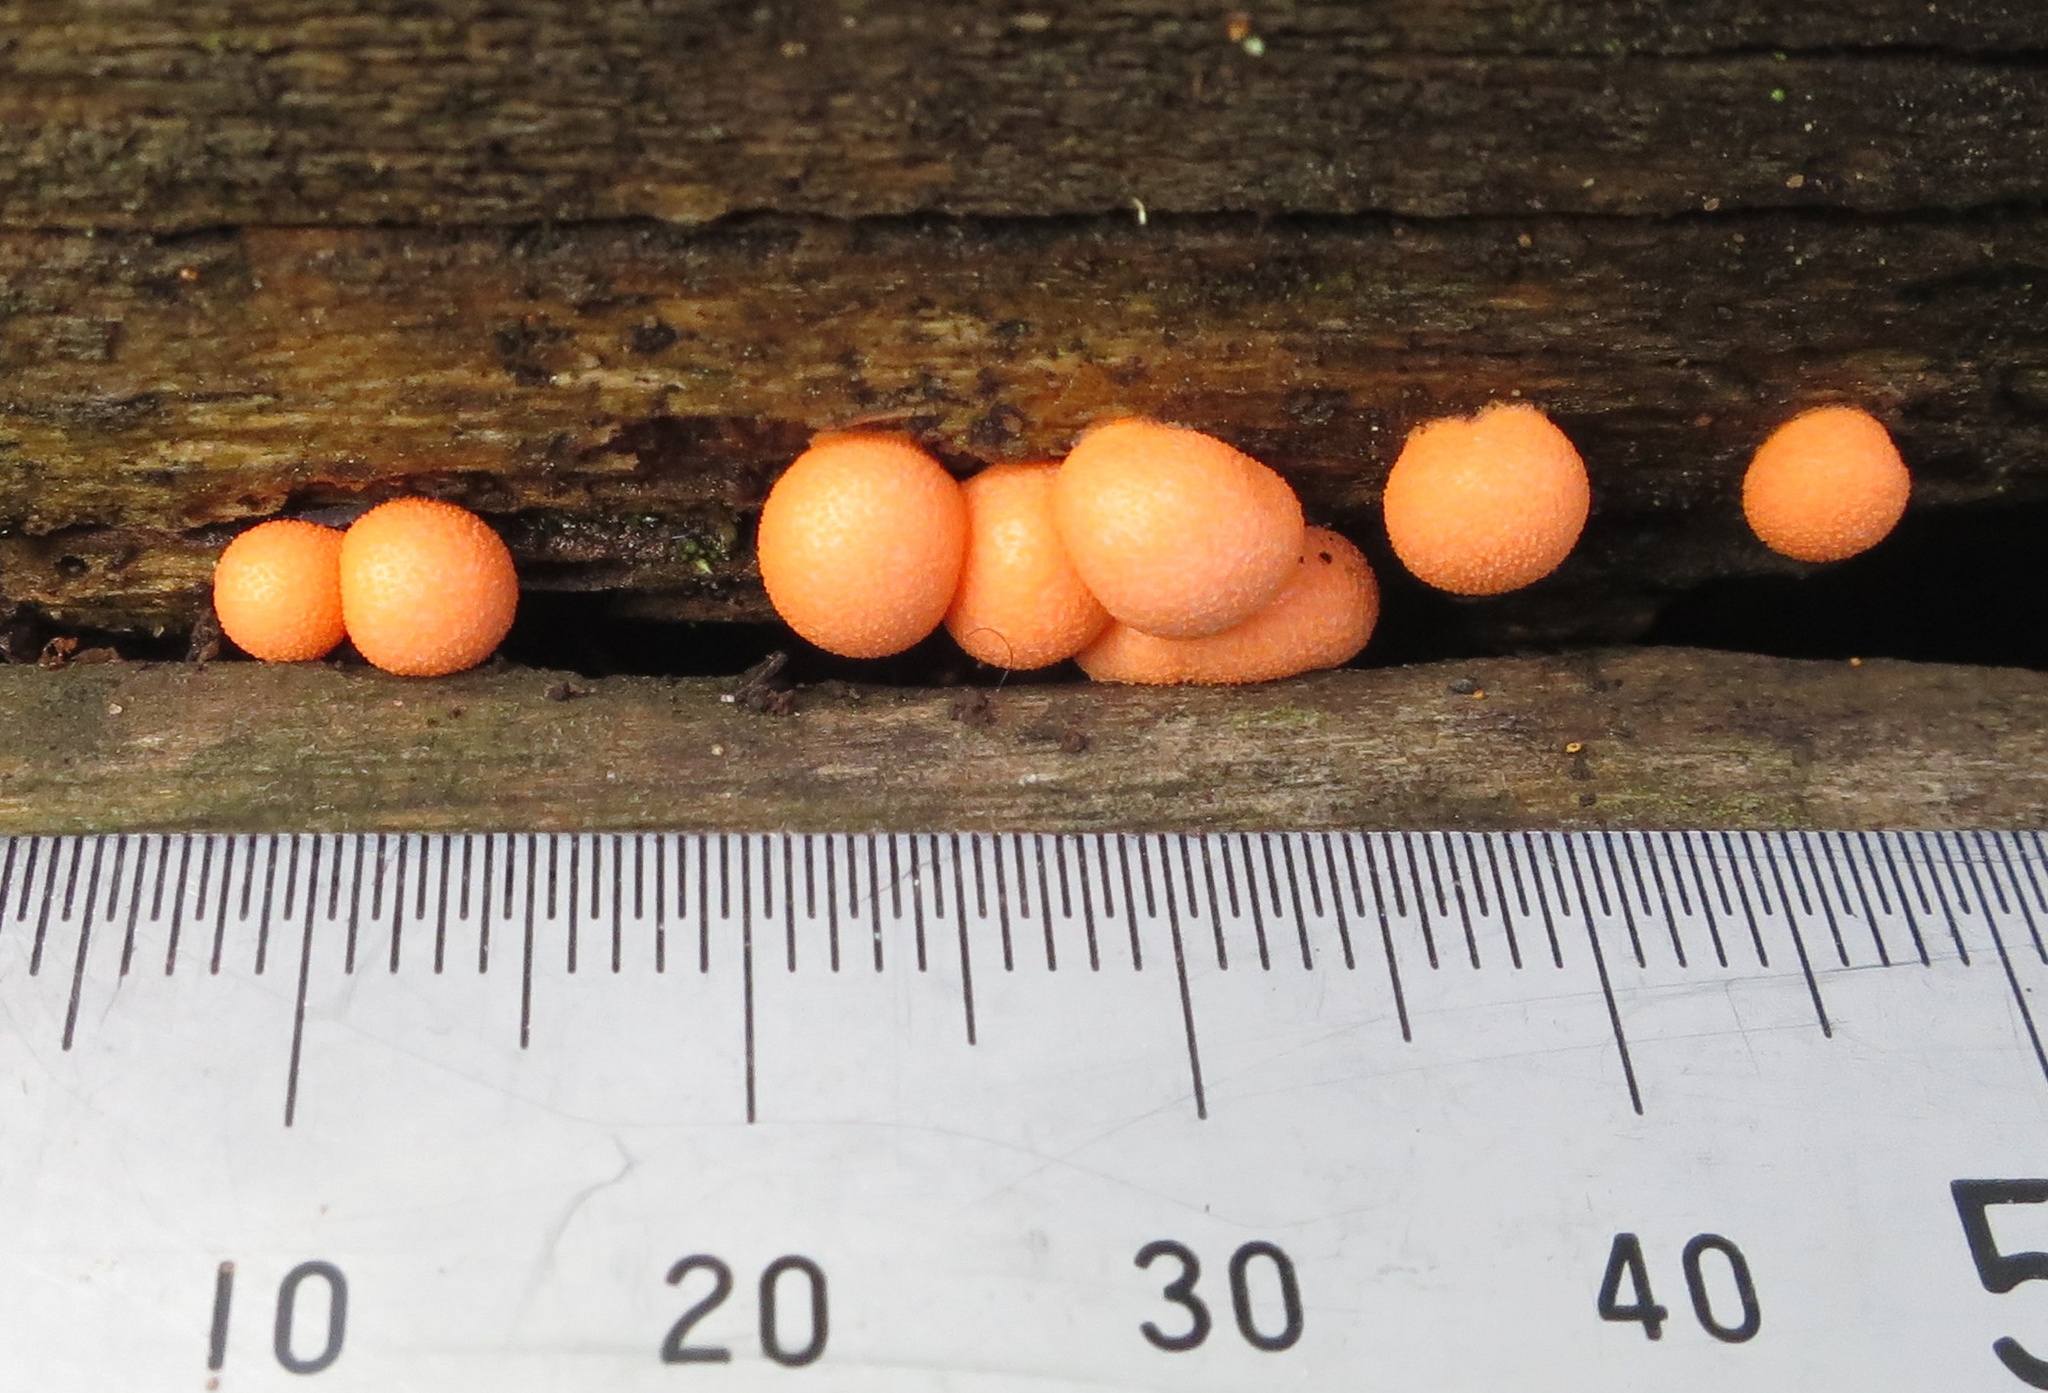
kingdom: Protozoa
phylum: Mycetozoa
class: Myxomycetes
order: Cribrariales
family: Tubiferaceae
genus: Lycogala
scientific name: Lycogala epidendrum
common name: Wolf's milk
